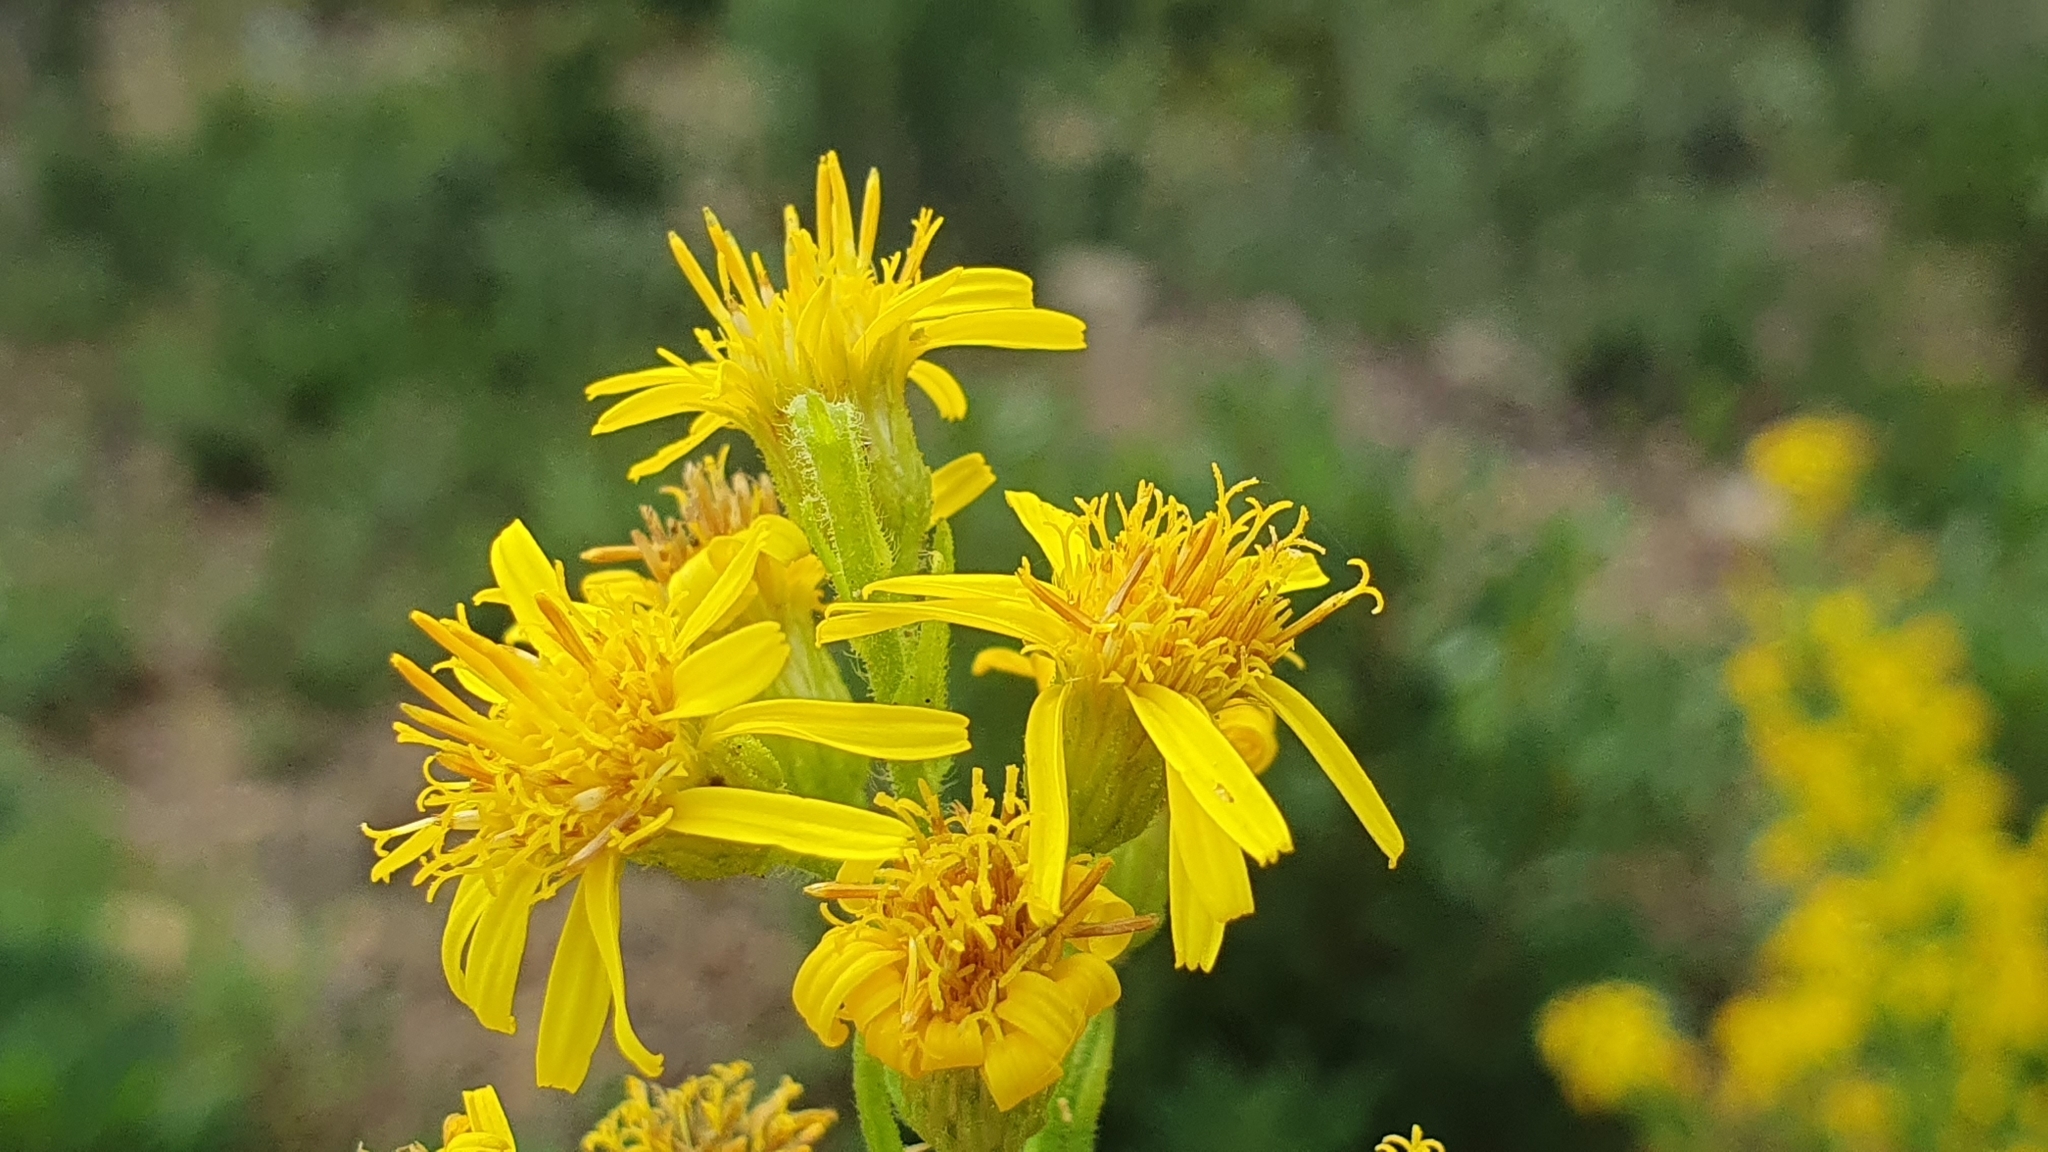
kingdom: Plantae
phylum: Tracheophyta
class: Magnoliopsida
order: Asterales
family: Asteraceae
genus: Dittrichia
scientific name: Dittrichia viscosa
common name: Woody fleabane
